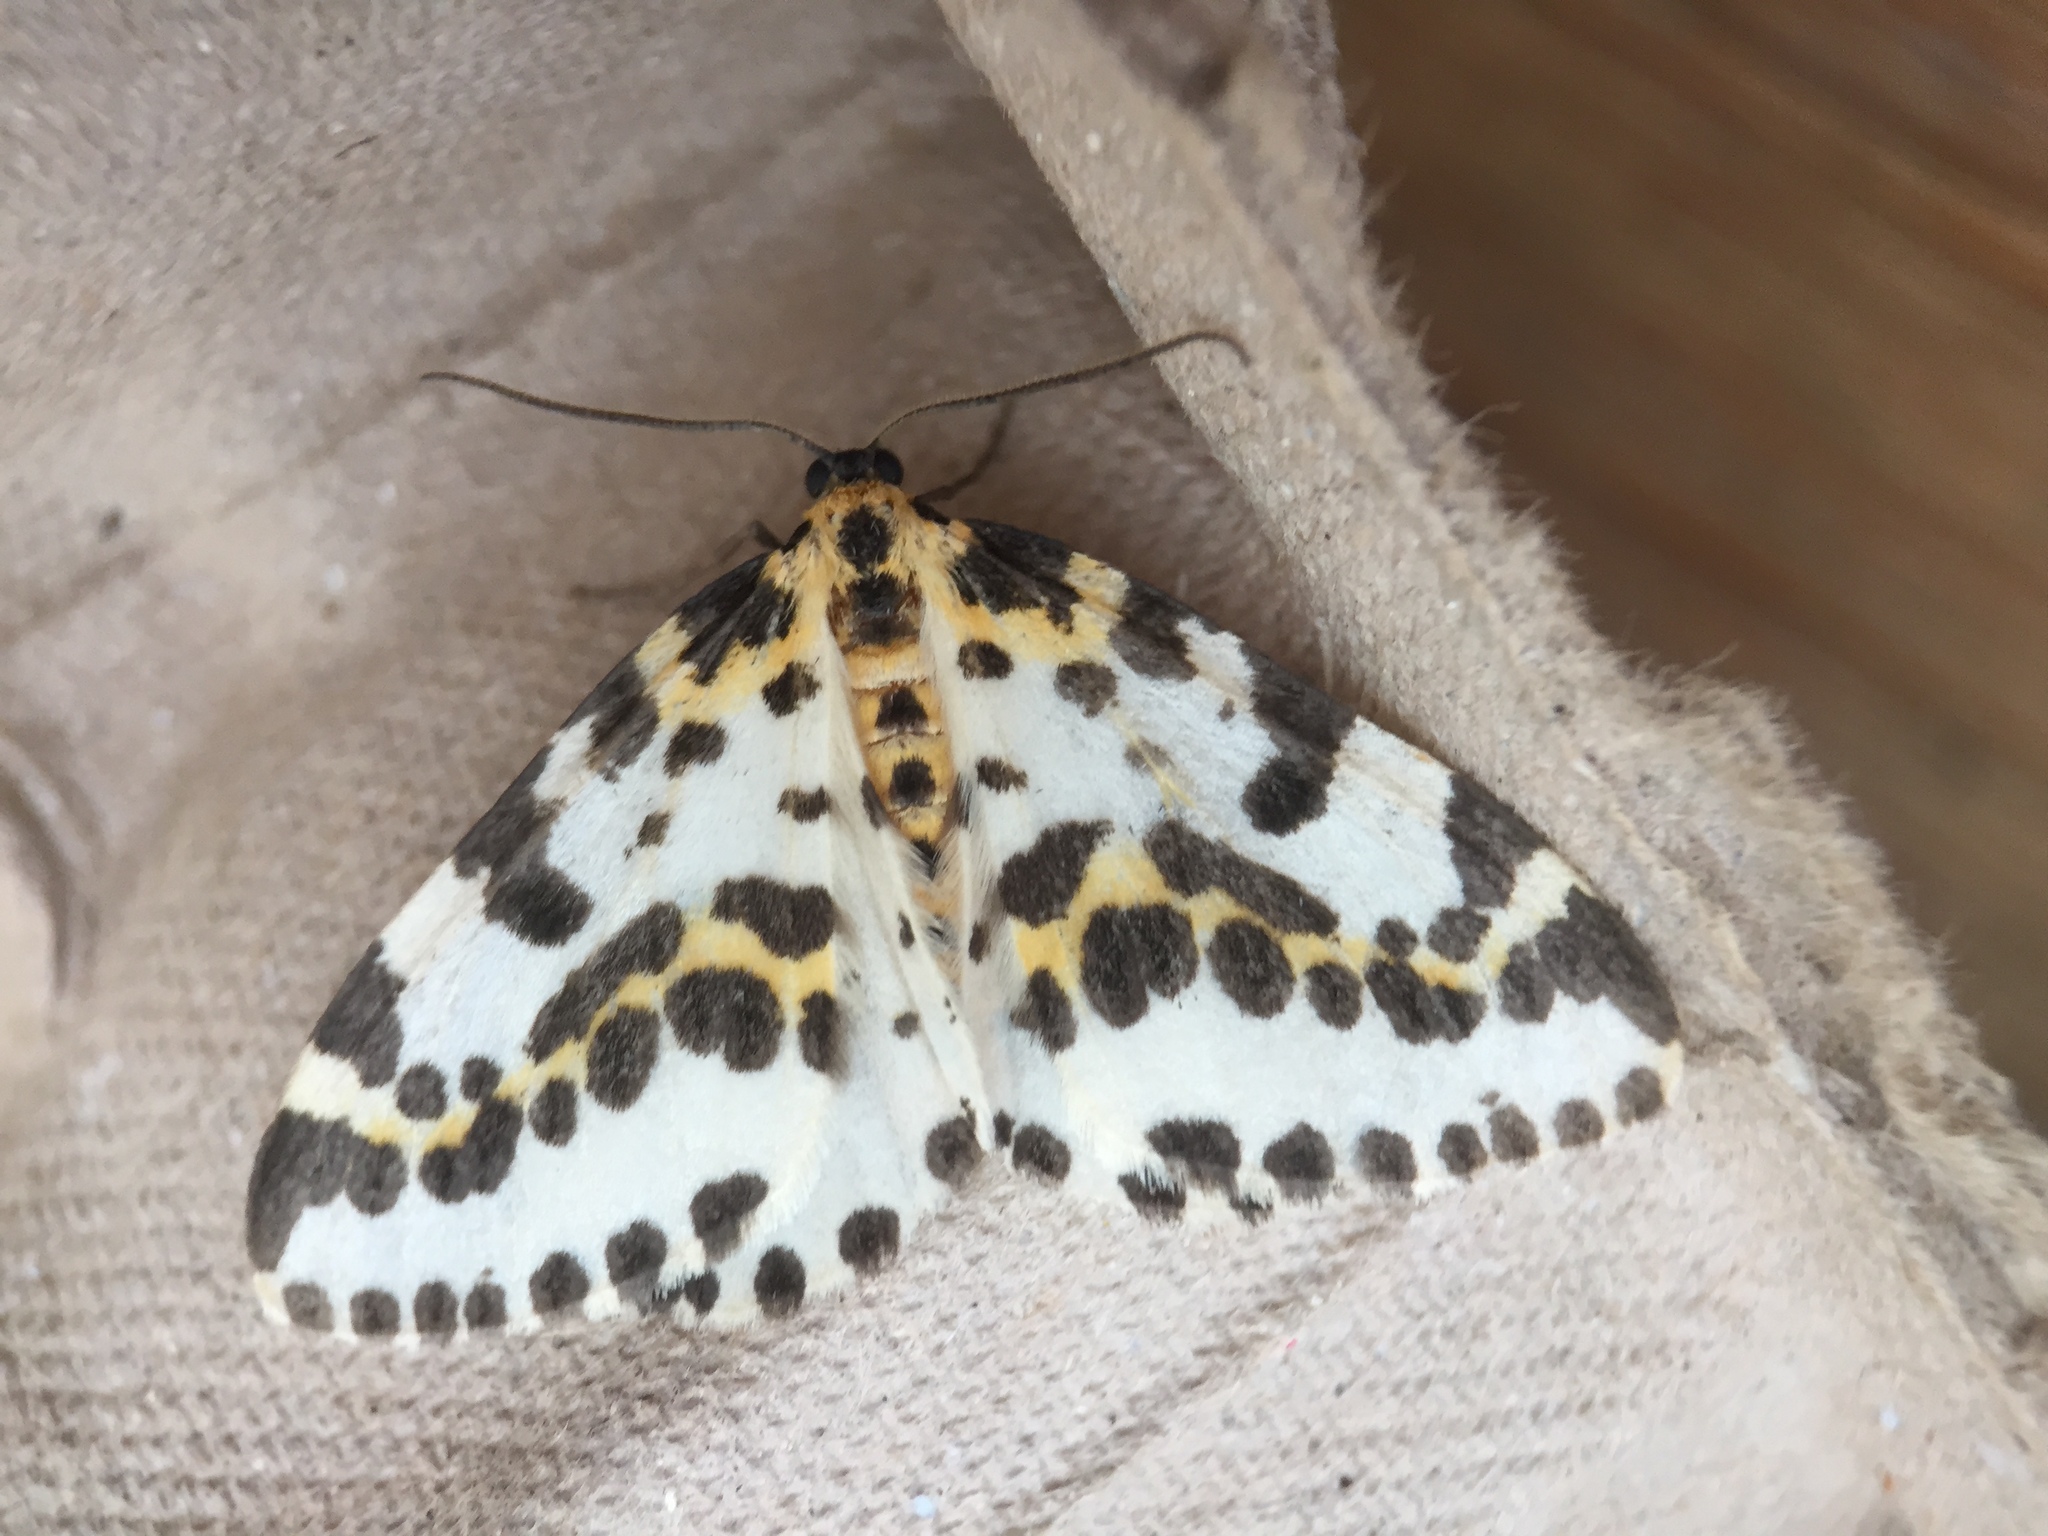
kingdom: Animalia
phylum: Arthropoda
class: Insecta
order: Lepidoptera
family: Geometridae
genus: Abraxas
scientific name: Abraxas grossulariata
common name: Magpie
